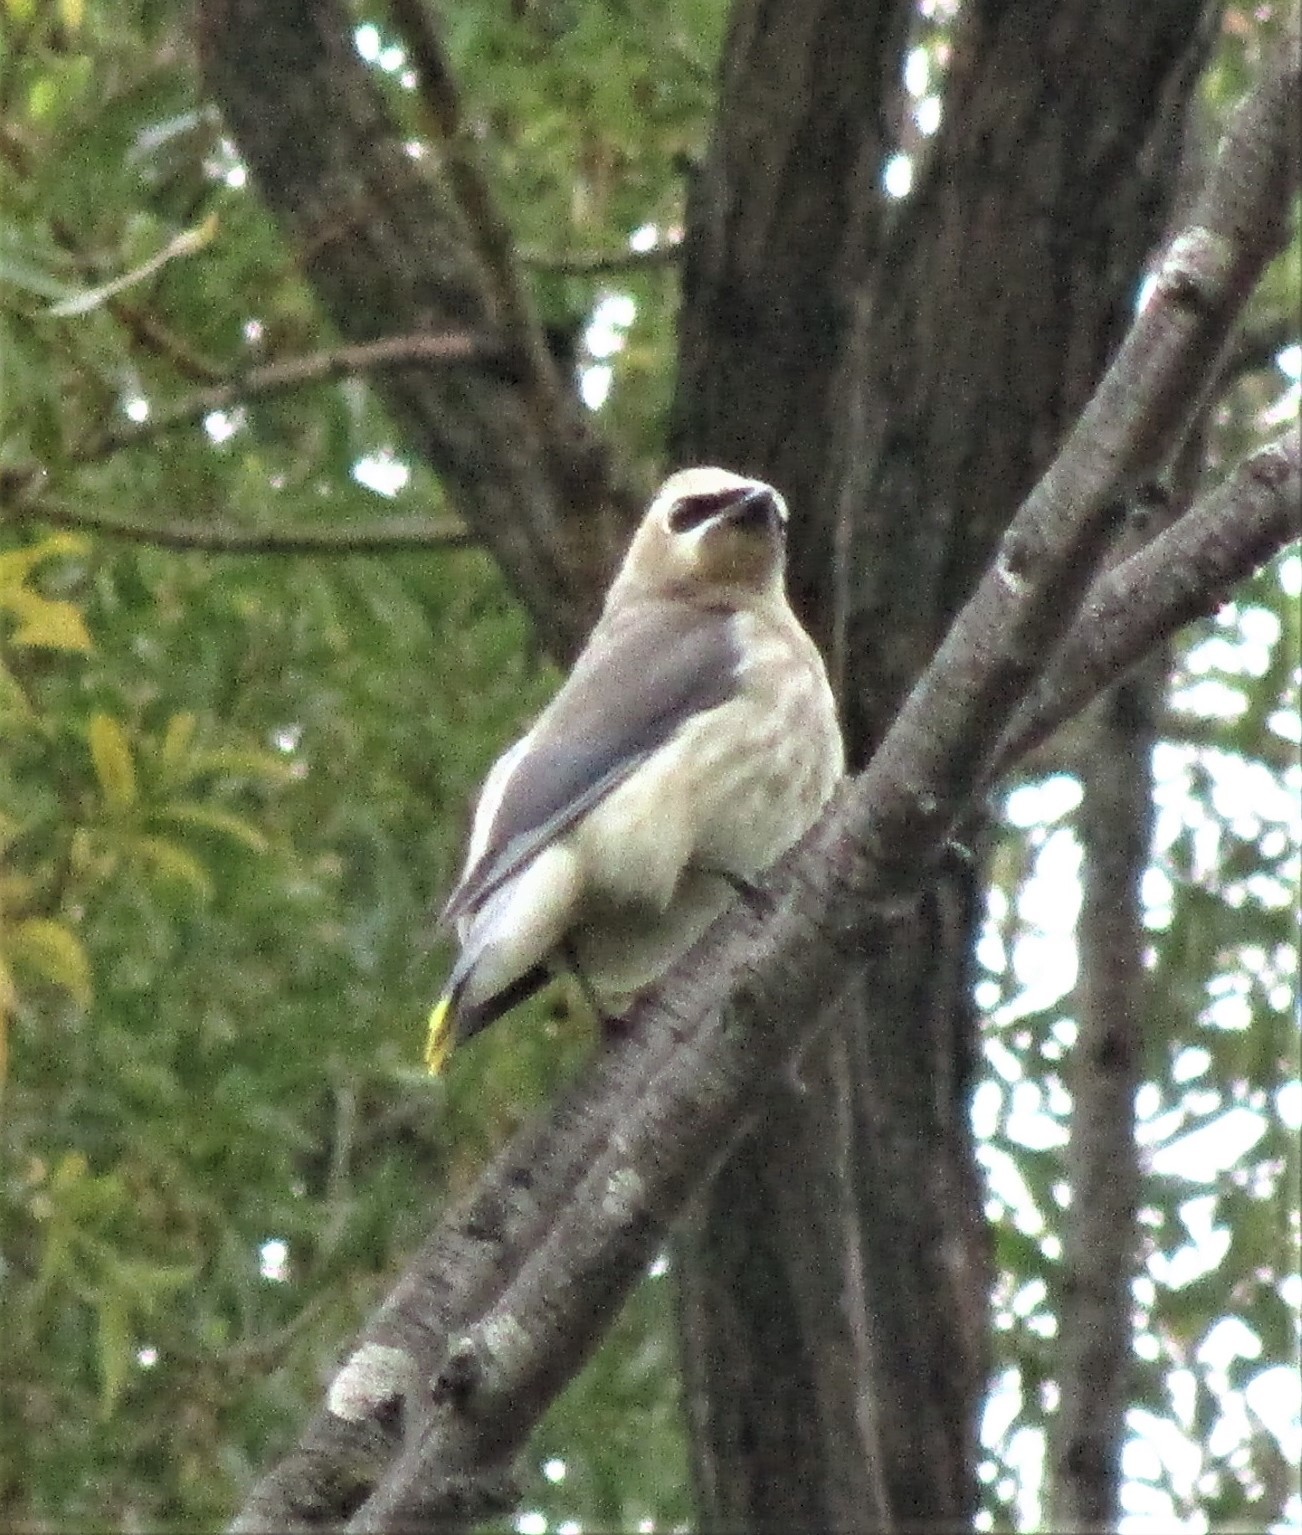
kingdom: Animalia
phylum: Chordata
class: Aves
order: Passeriformes
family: Bombycillidae
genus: Bombycilla
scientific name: Bombycilla cedrorum
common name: Cedar waxwing
